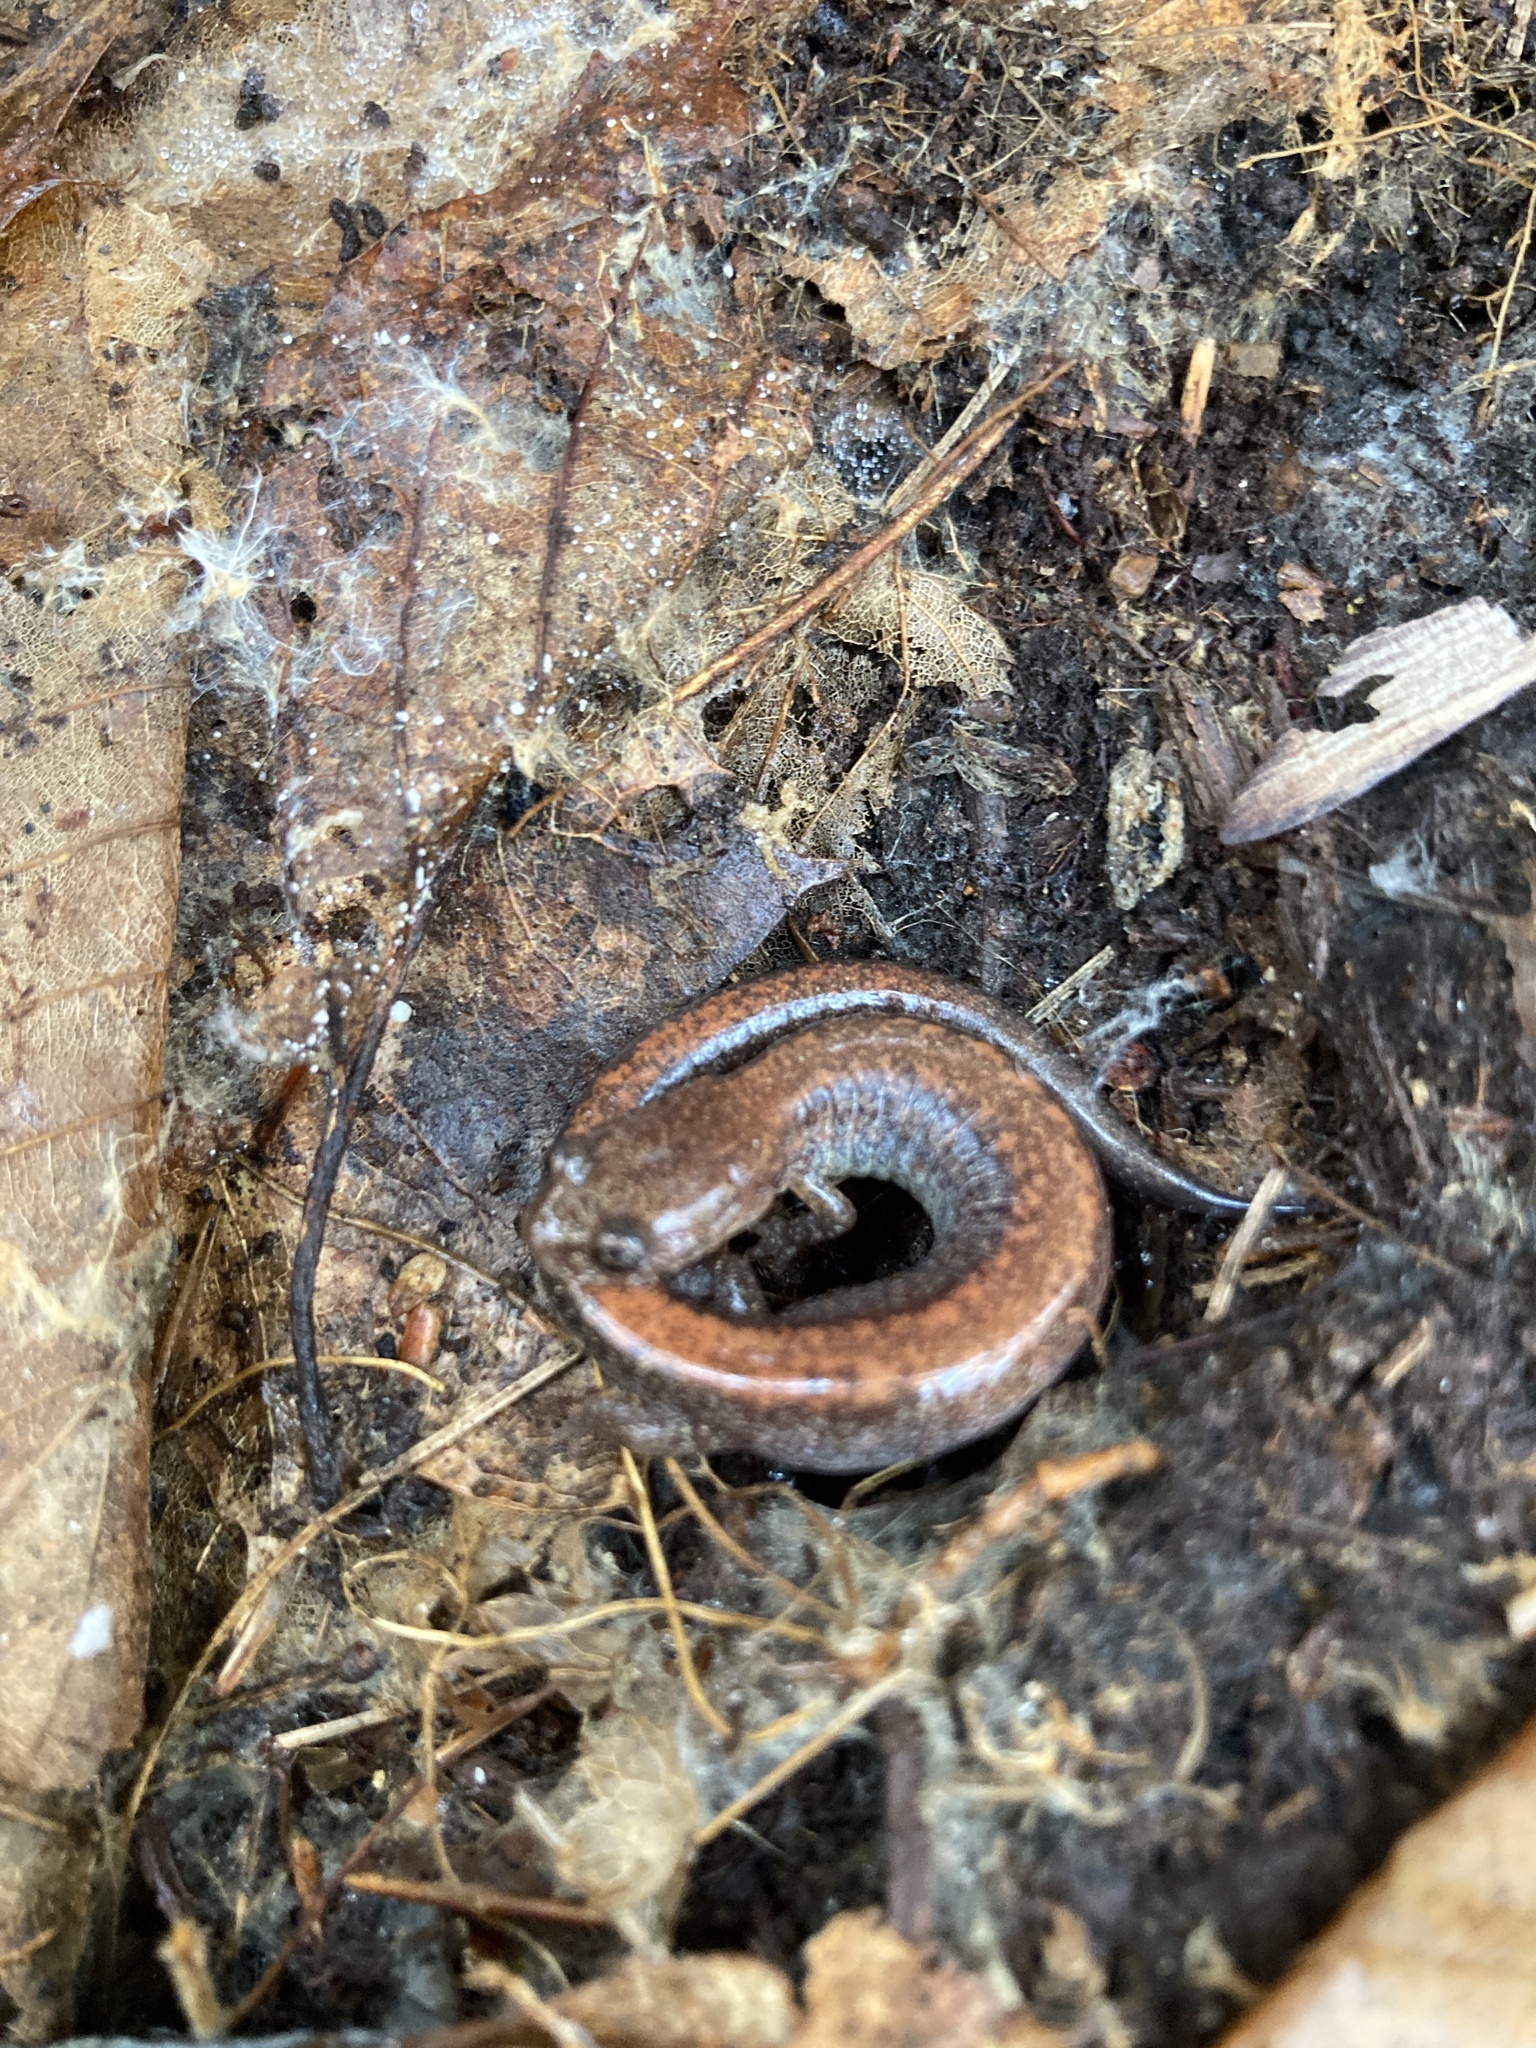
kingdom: Animalia
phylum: Chordata
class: Amphibia
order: Caudata
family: Plethodontidae
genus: Plethodon
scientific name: Plethodon cinereus
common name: Redback salamander
